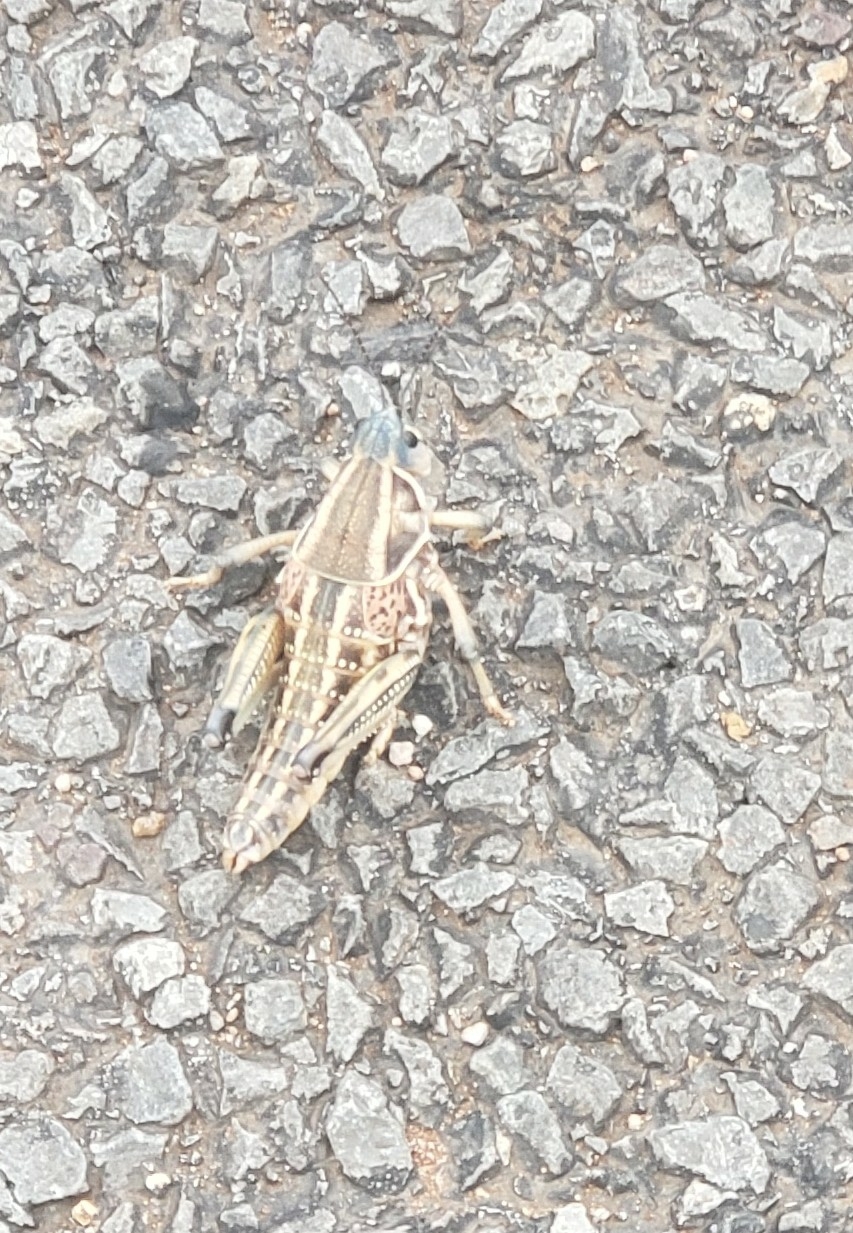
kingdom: Animalia
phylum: Arthropoda
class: Insecta
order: Orthoptera
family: Romaleidae
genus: Brachystola
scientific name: Brachystola magna
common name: Plains lubber grasshopper
